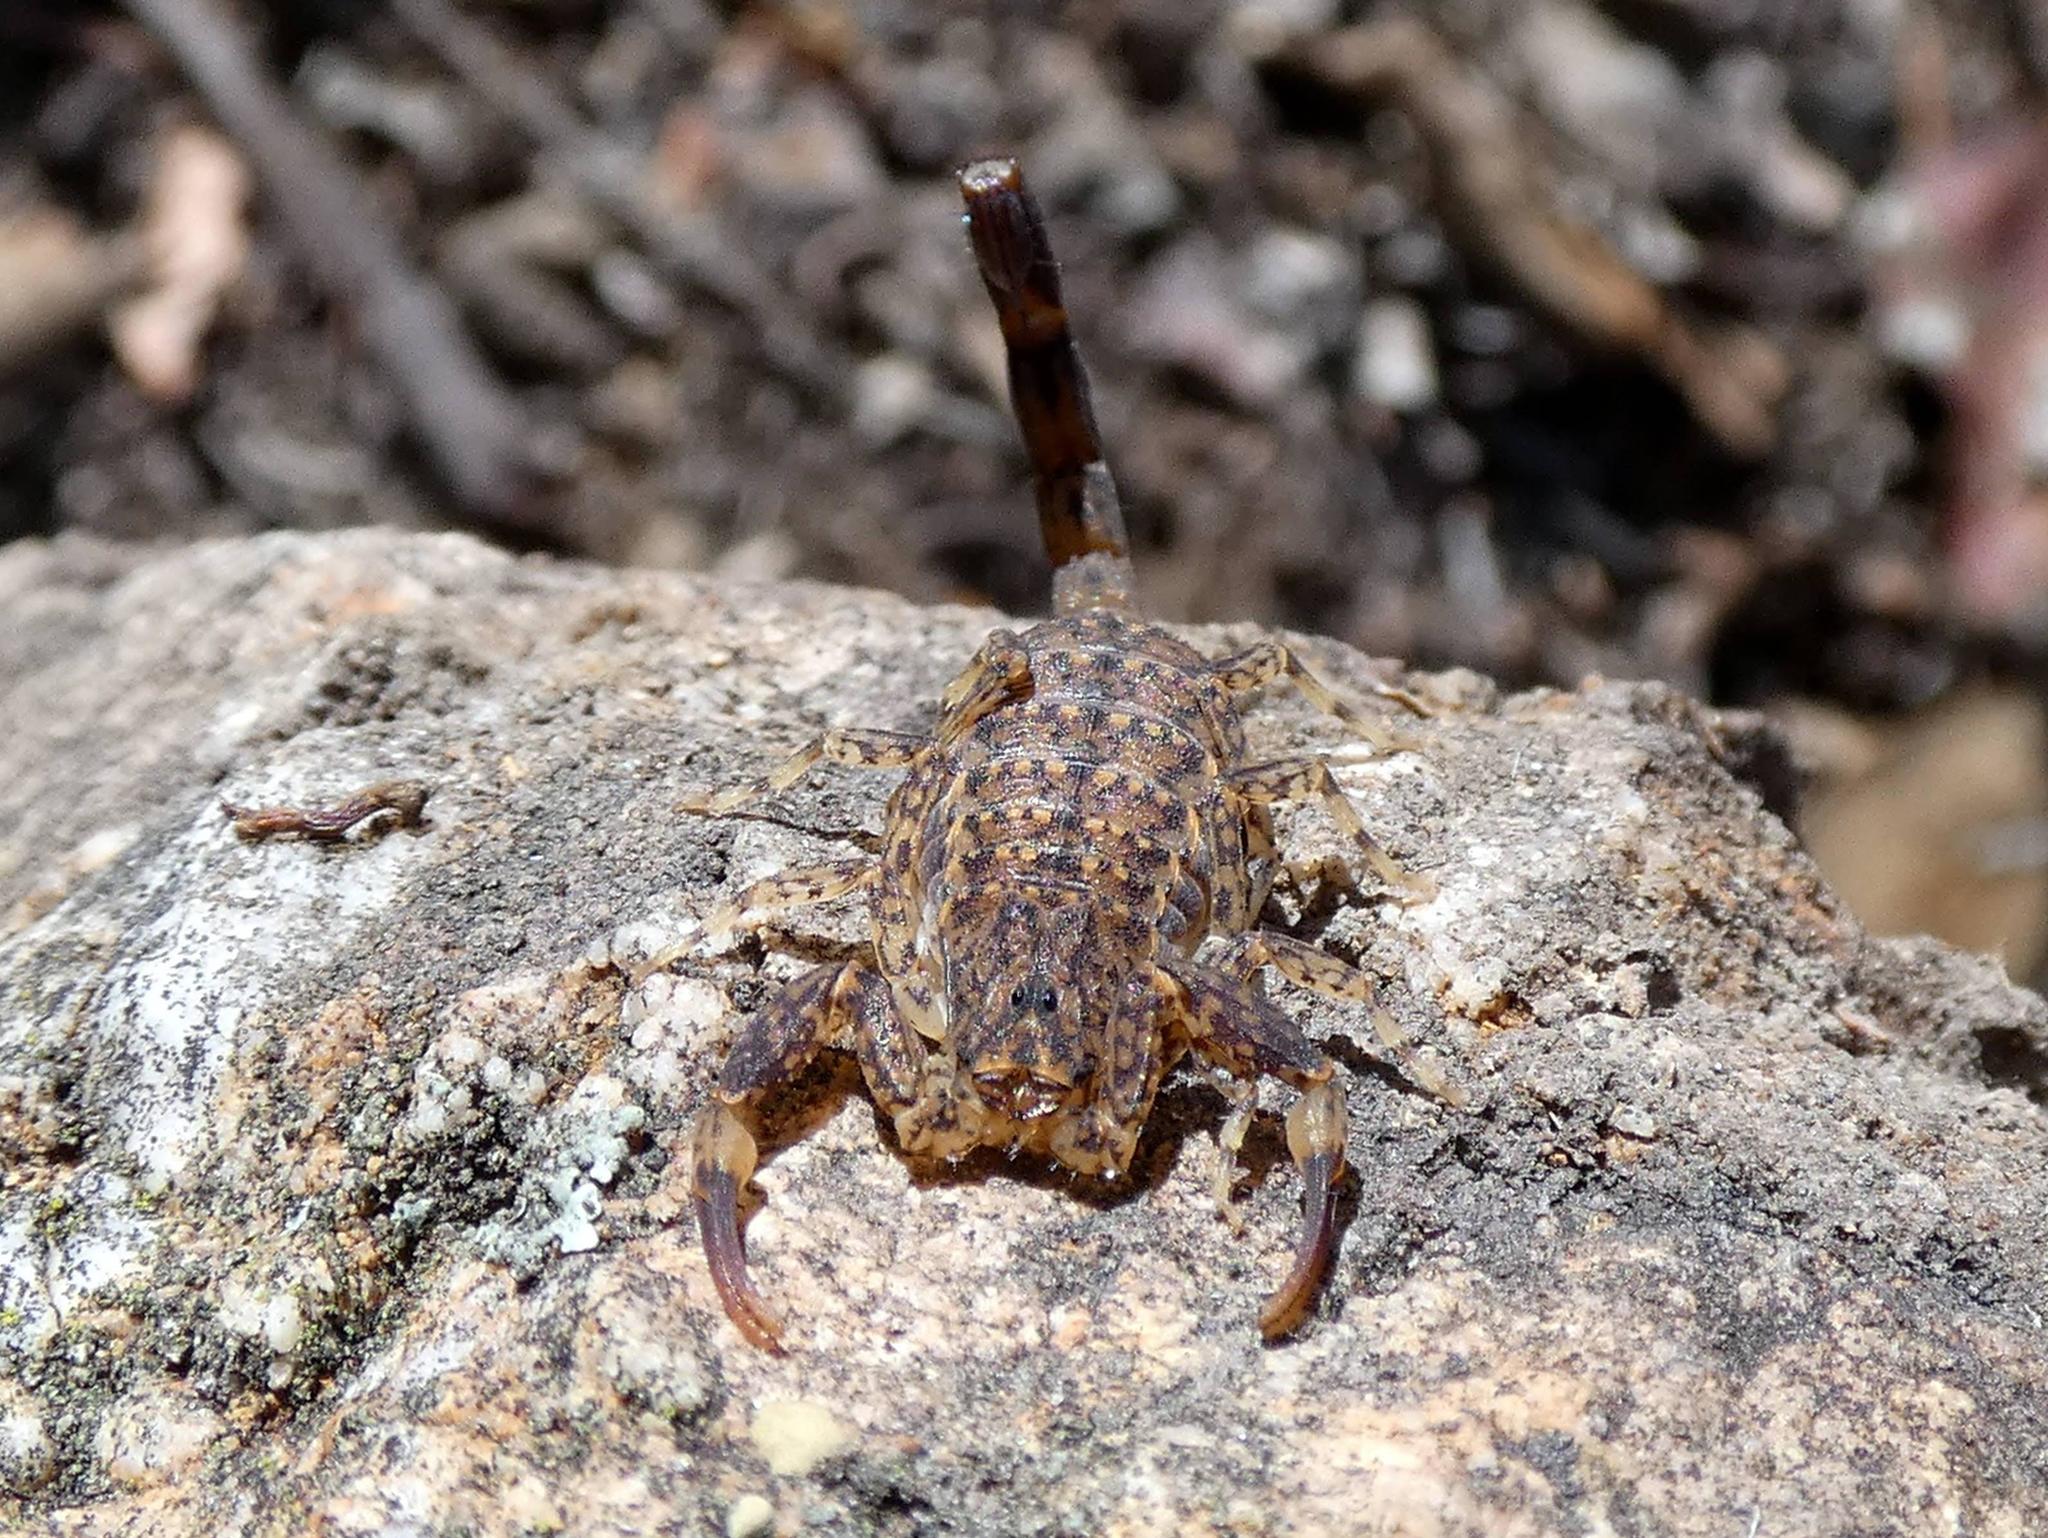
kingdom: Animalia
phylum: Arthropoda
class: Arachnida
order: Scorpiones
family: Buthidae
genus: Lychas
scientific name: Lychas marmoreus
